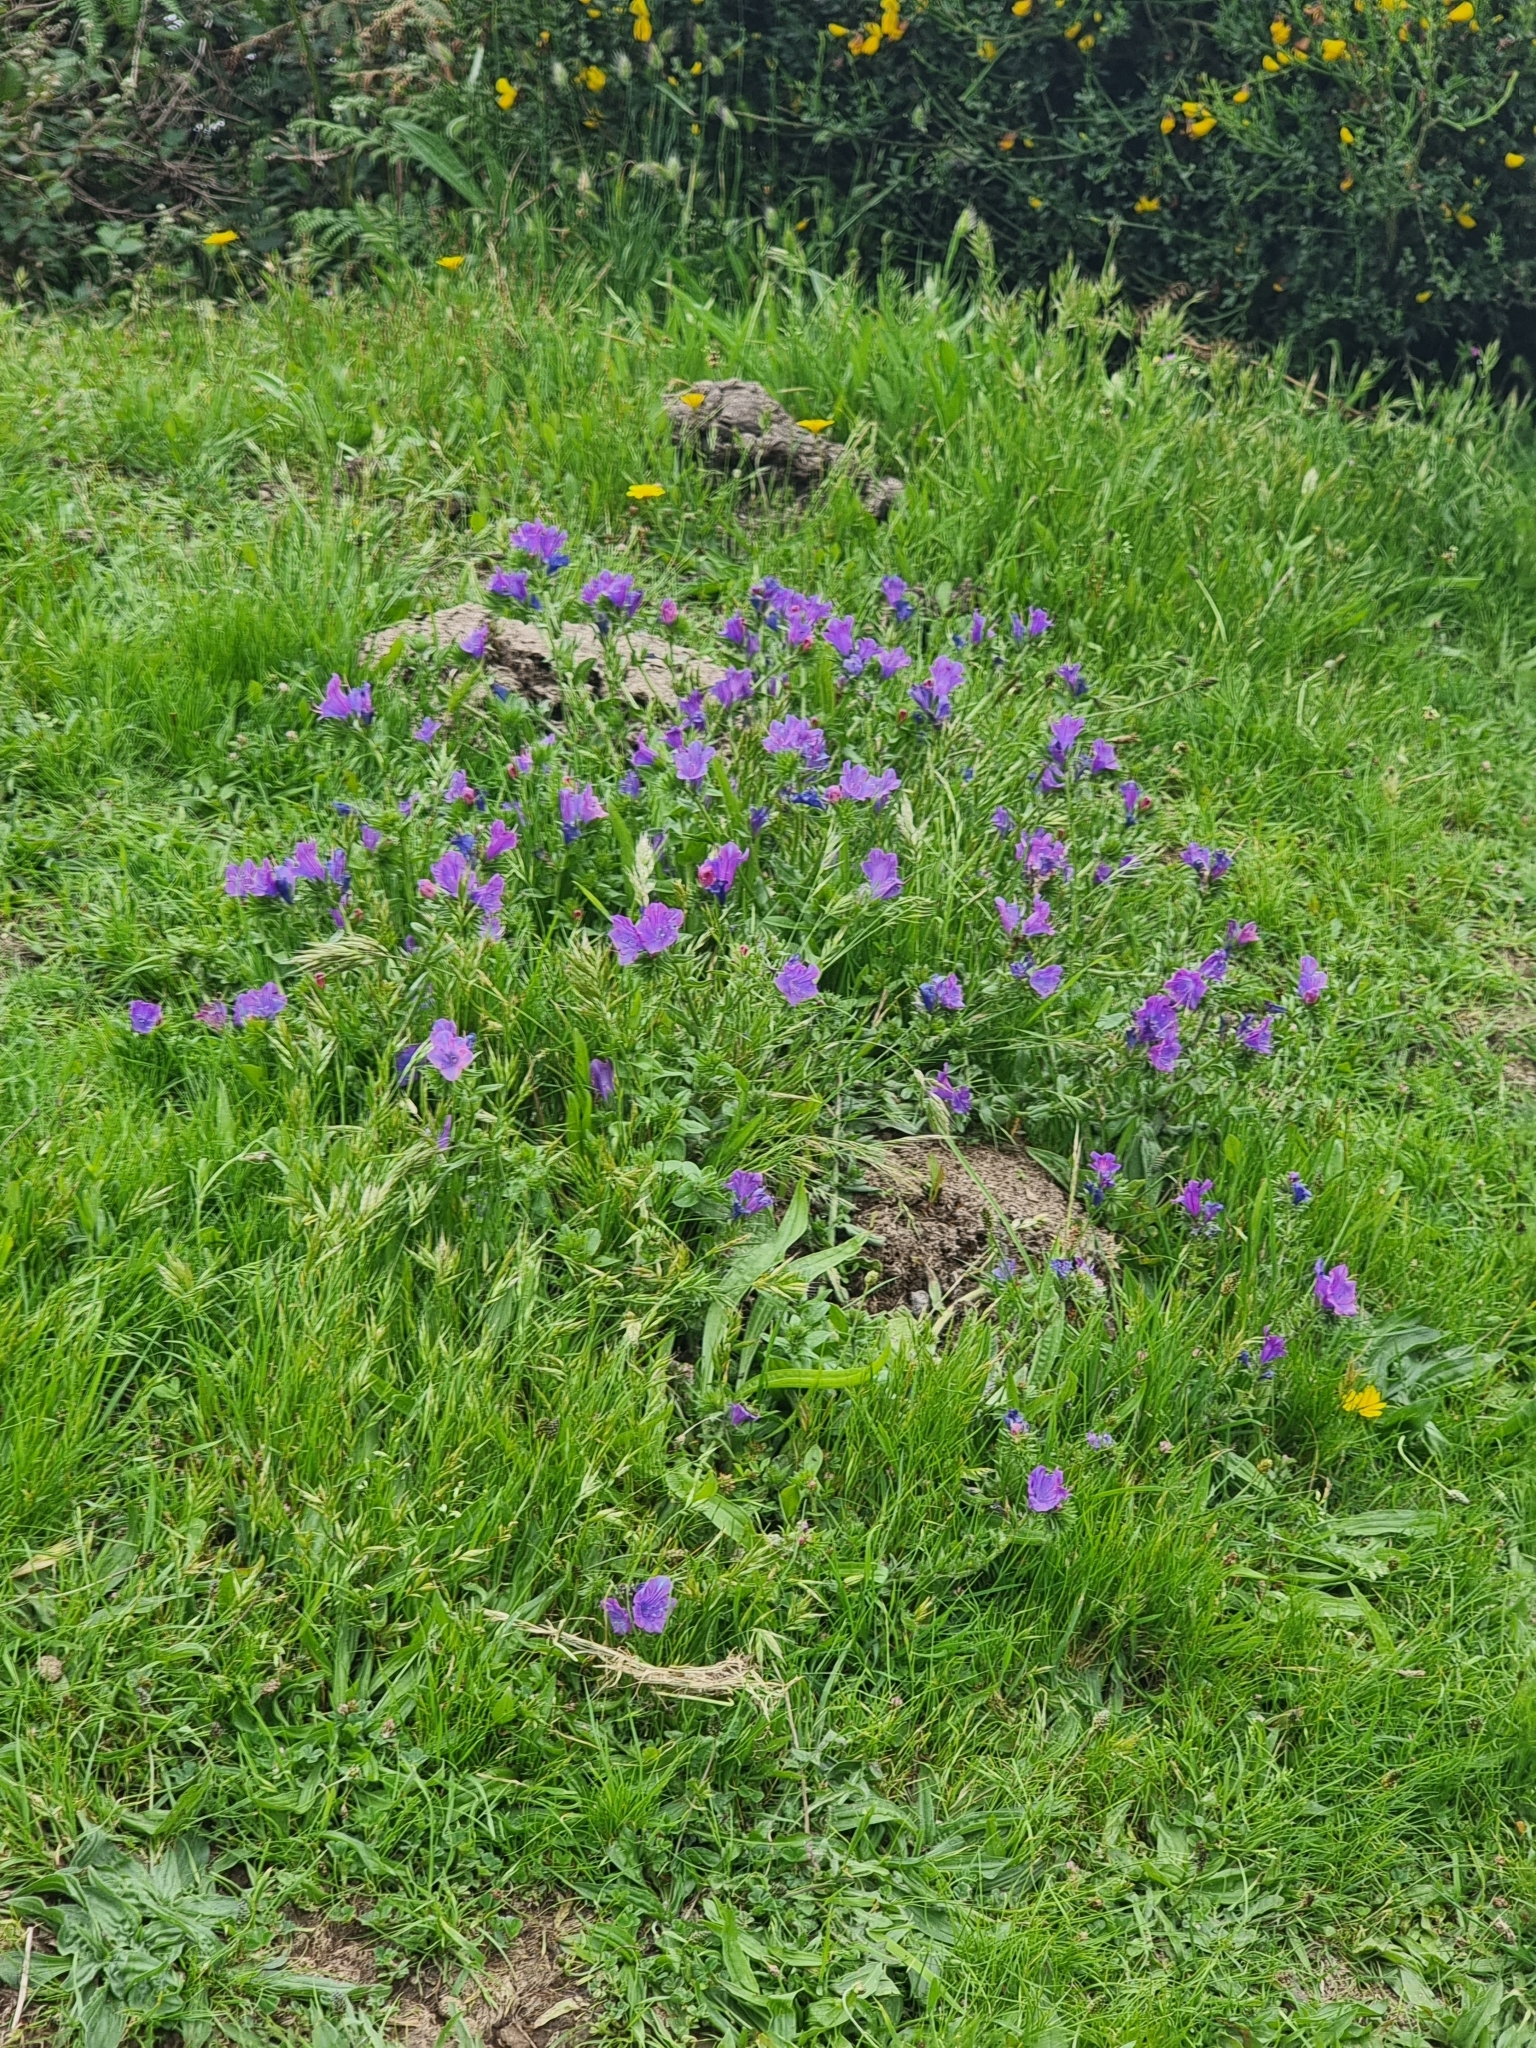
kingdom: Plantae
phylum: Tracheophyta
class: Magnoliopsida
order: Boraginales
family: Boraginaceae
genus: Echium
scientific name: Echium plantagineum
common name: Purple viper's-bugloss
